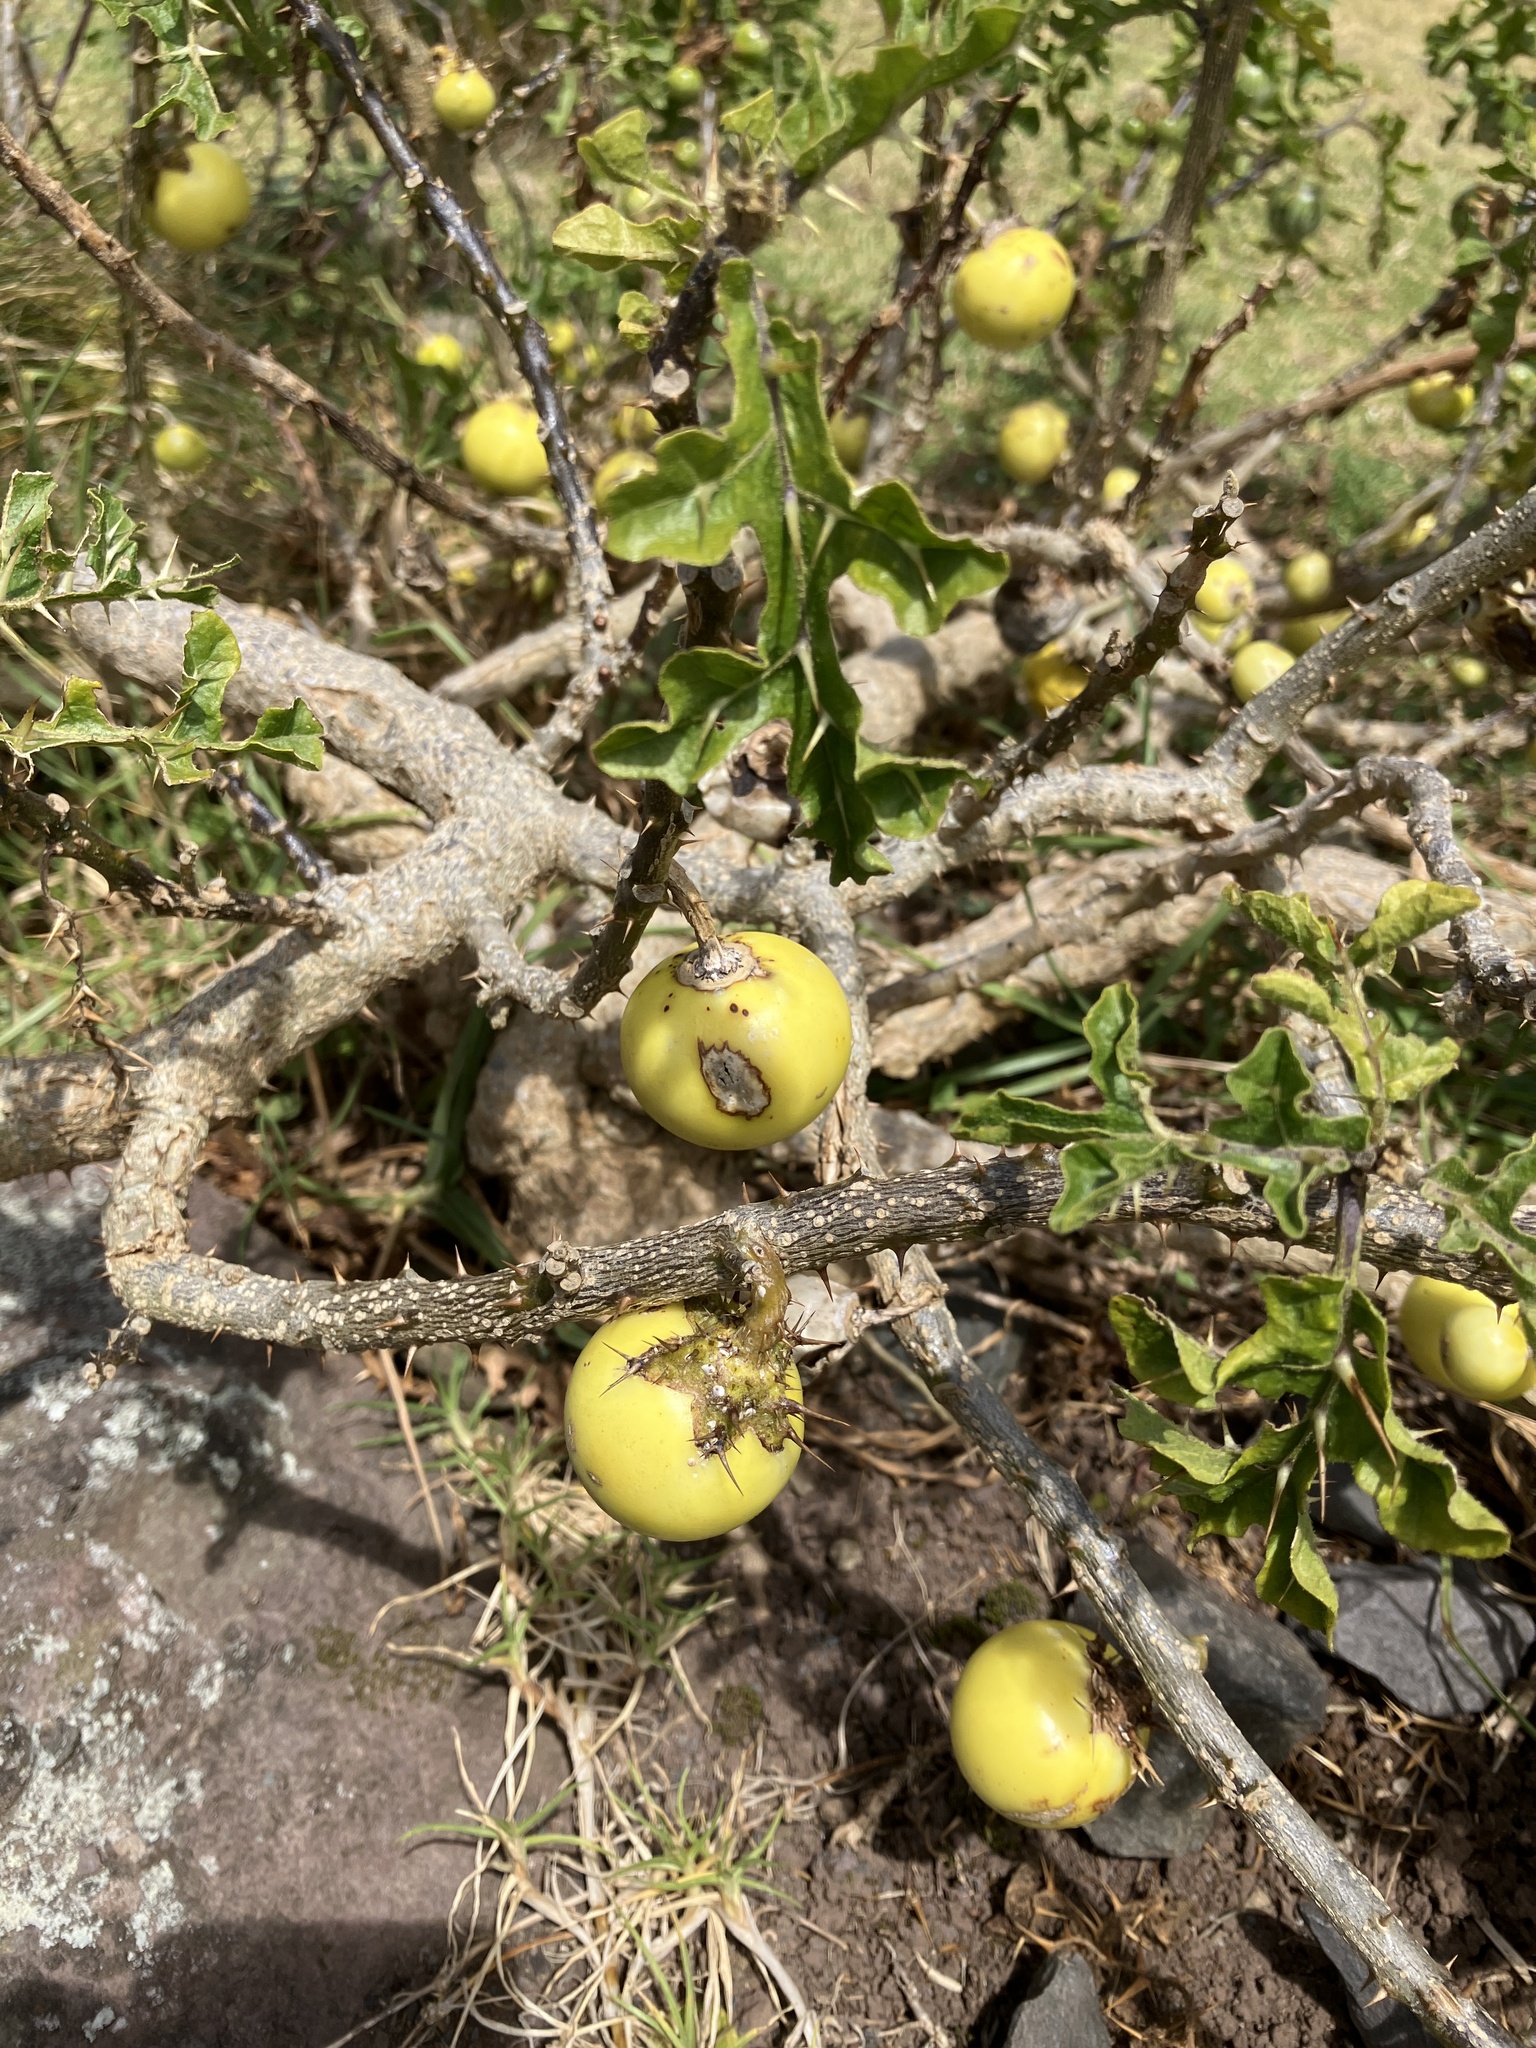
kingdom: Plantae
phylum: Tracheophyta
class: Magnoliopsida
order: Solanales
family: Solanaceae
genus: Solanum
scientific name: Solanum linnaeanum
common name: Nightshade
